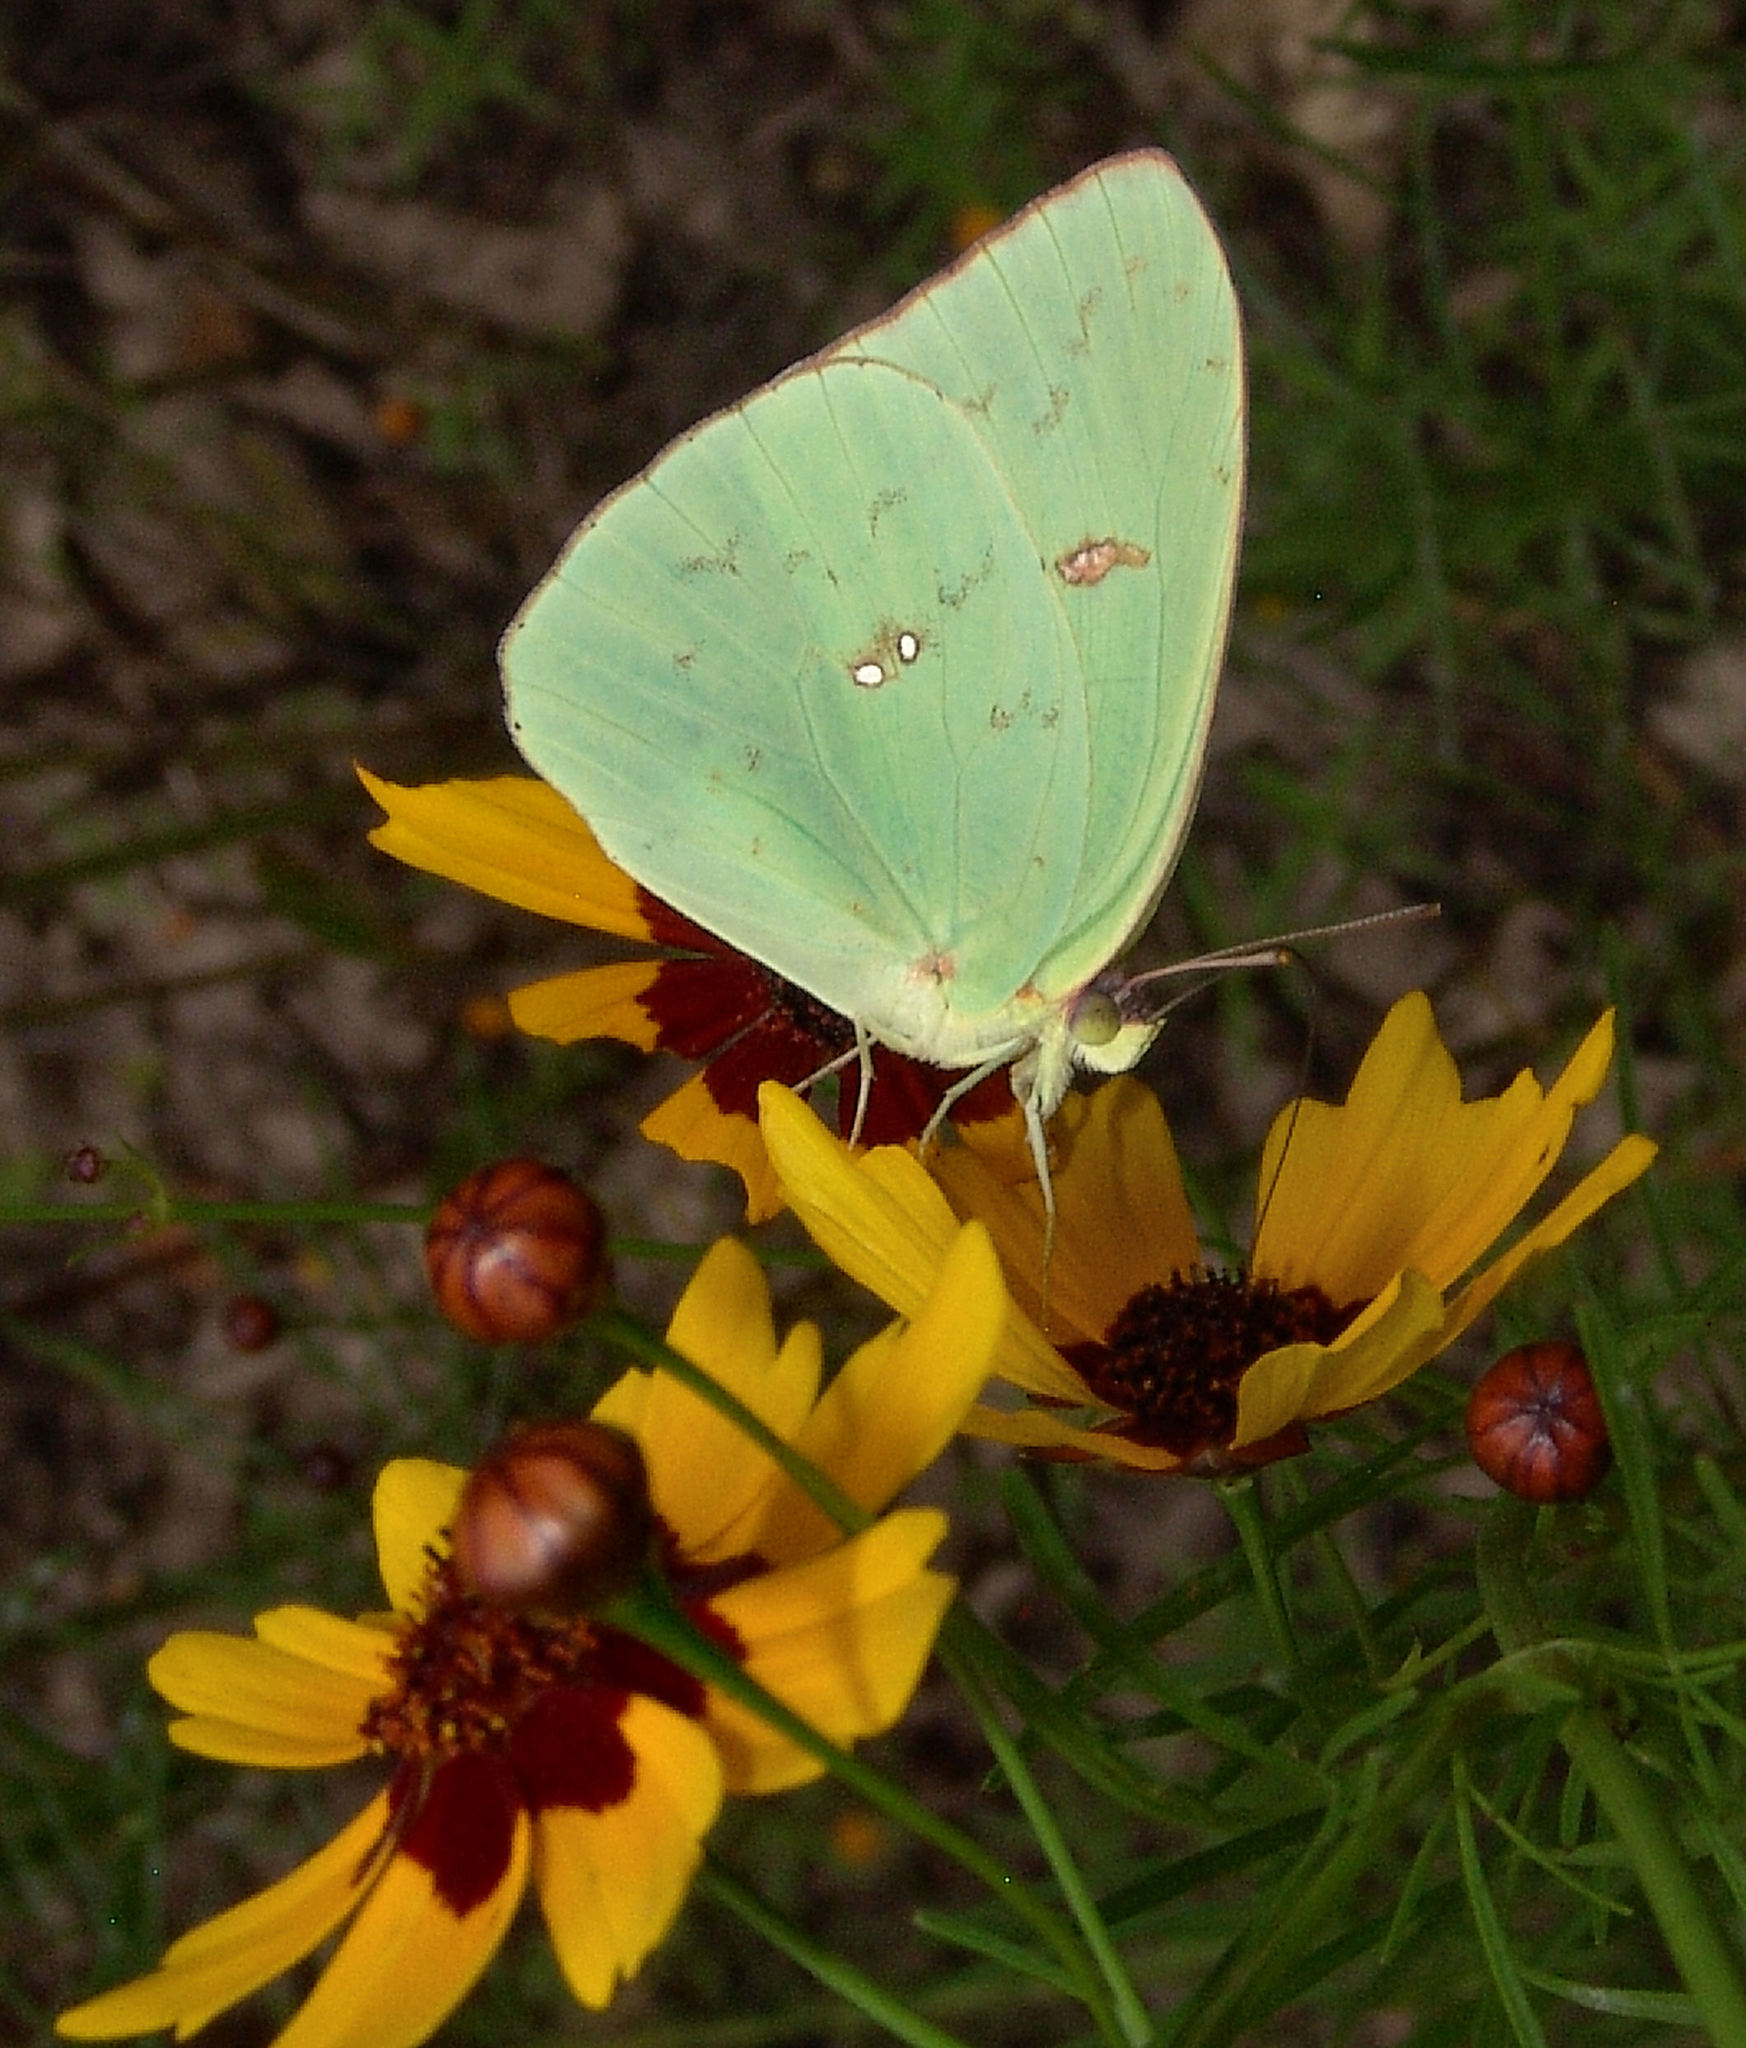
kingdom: Animalia
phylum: Arthropoda
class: Insecta
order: Lepidoptera
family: Pieridae
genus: Phoebis
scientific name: Phoebis sennae
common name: Cloudless sulphur
